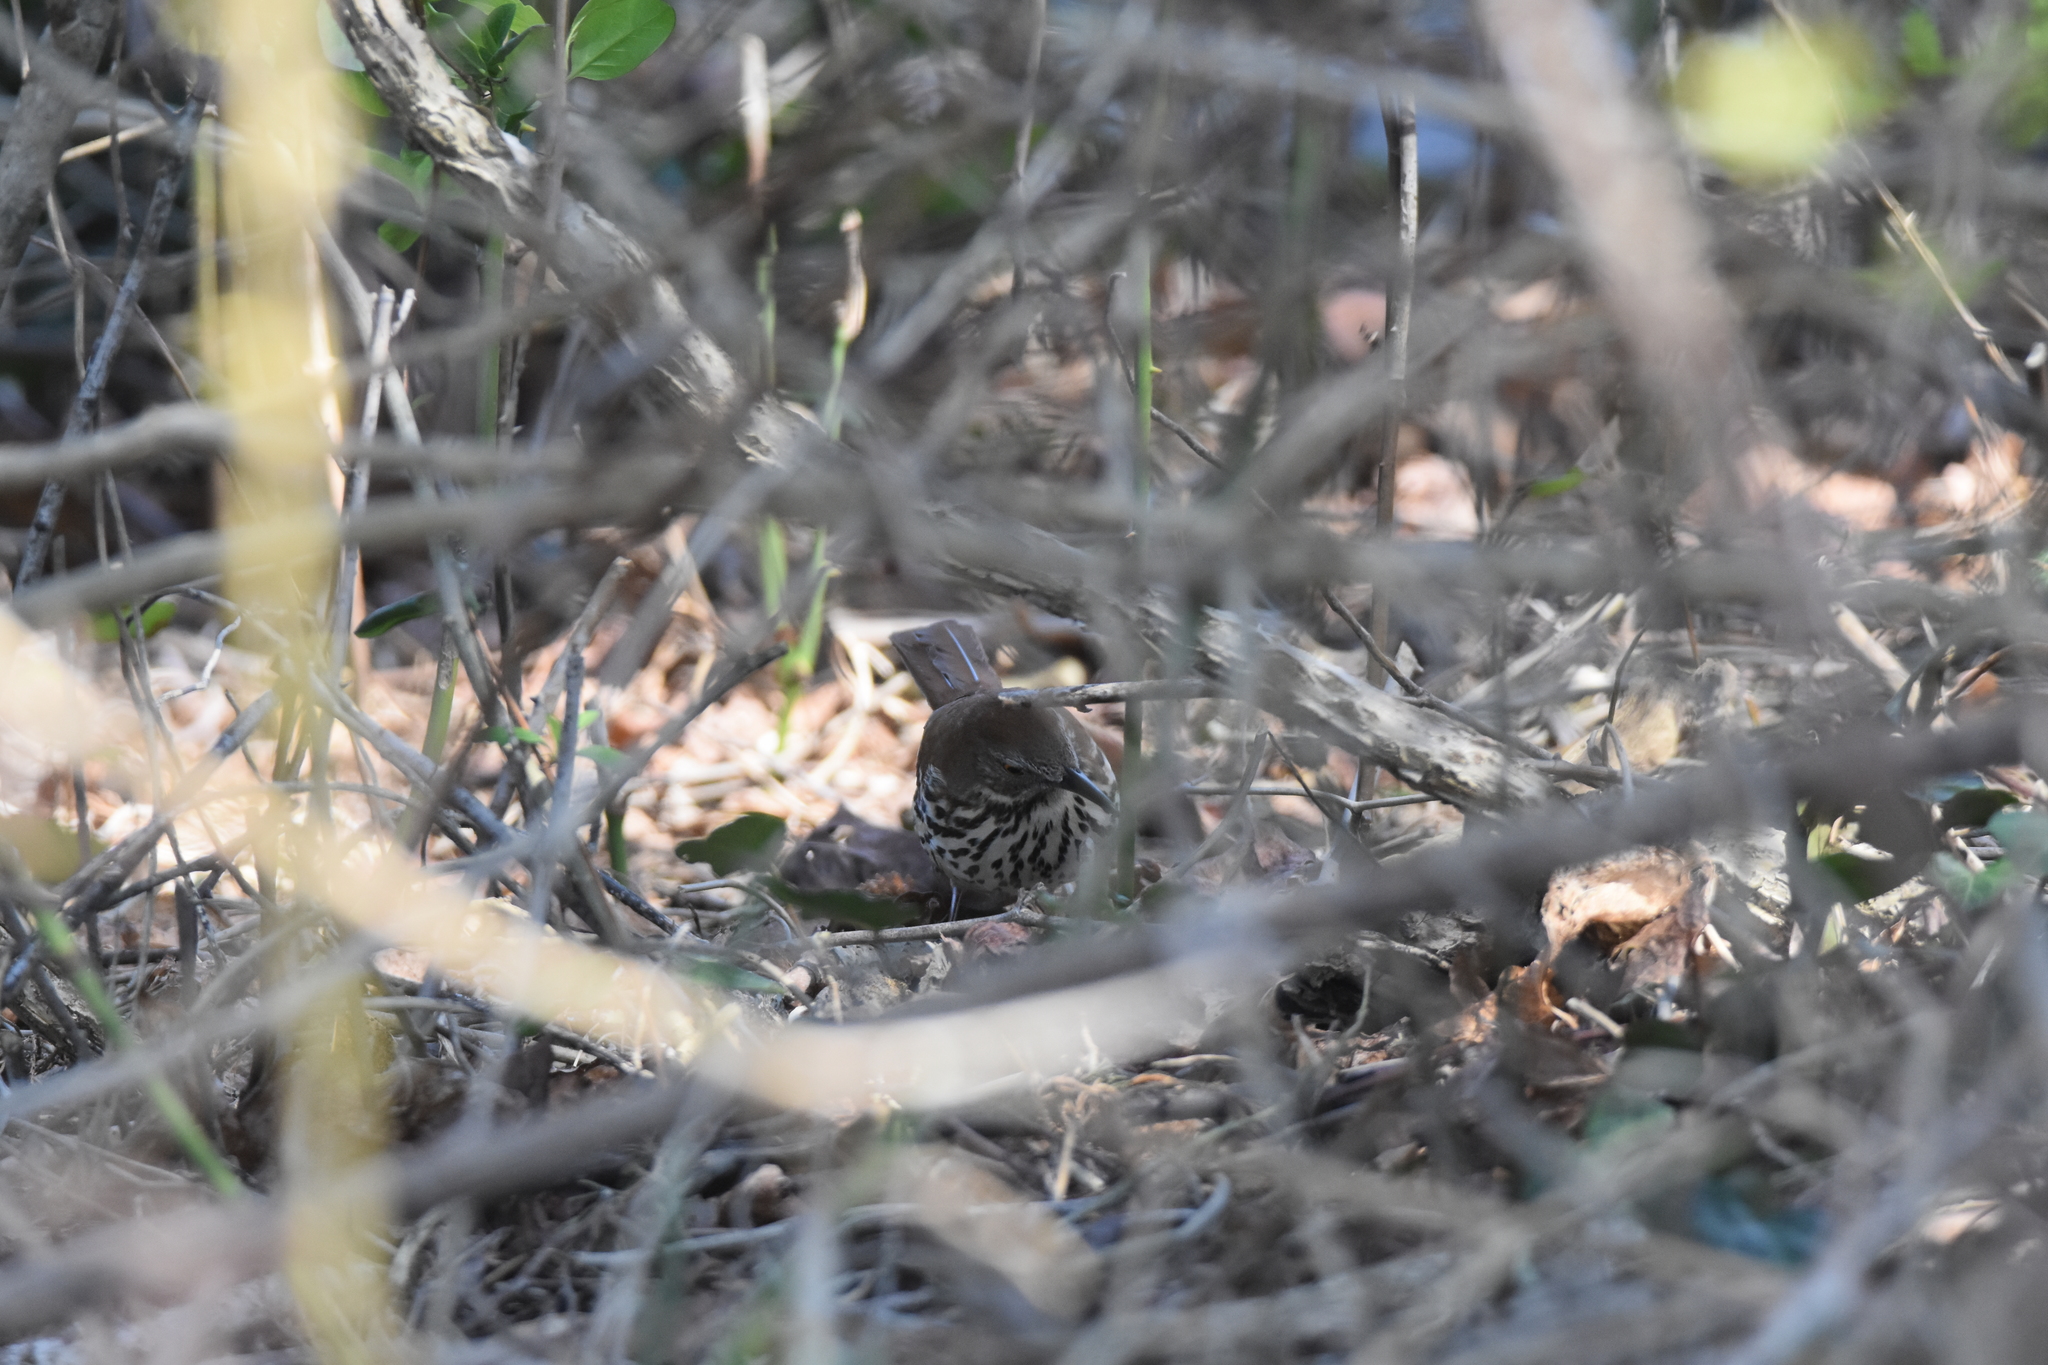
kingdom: Animalia
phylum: Chordata
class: Aves
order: Passeriformes
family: Mimidae
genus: Toxostoma
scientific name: Toxostoma rufum
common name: Brown thrasher
